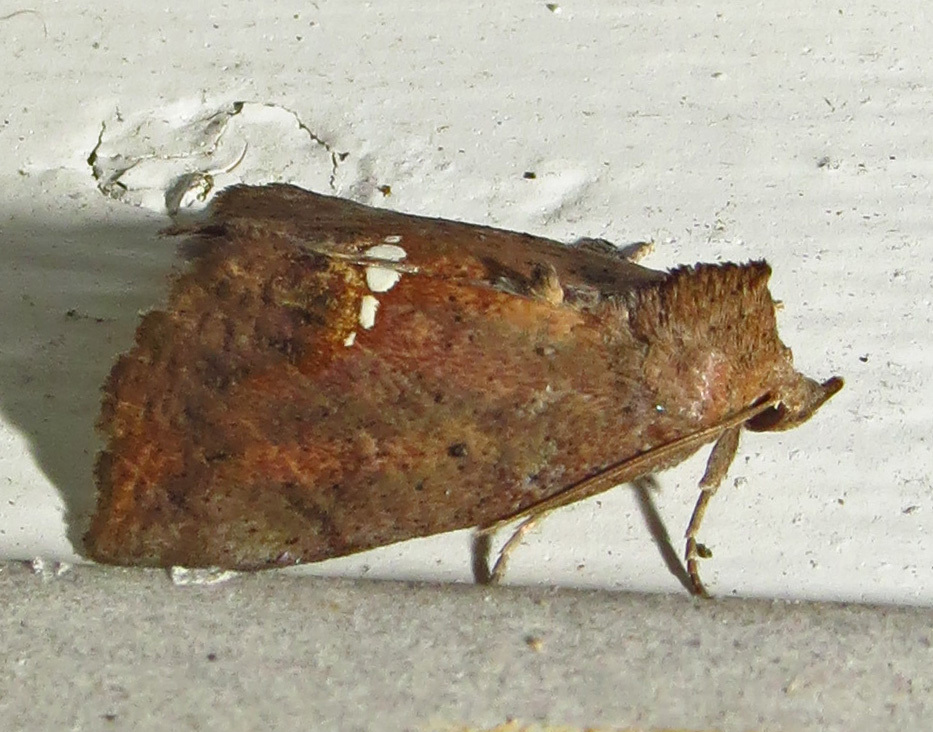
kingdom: Animalia
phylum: Arthropoda
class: Insecta
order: Lepidoptera
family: Erebidae
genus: Hypsoropha
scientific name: Hypsoropha hormos
